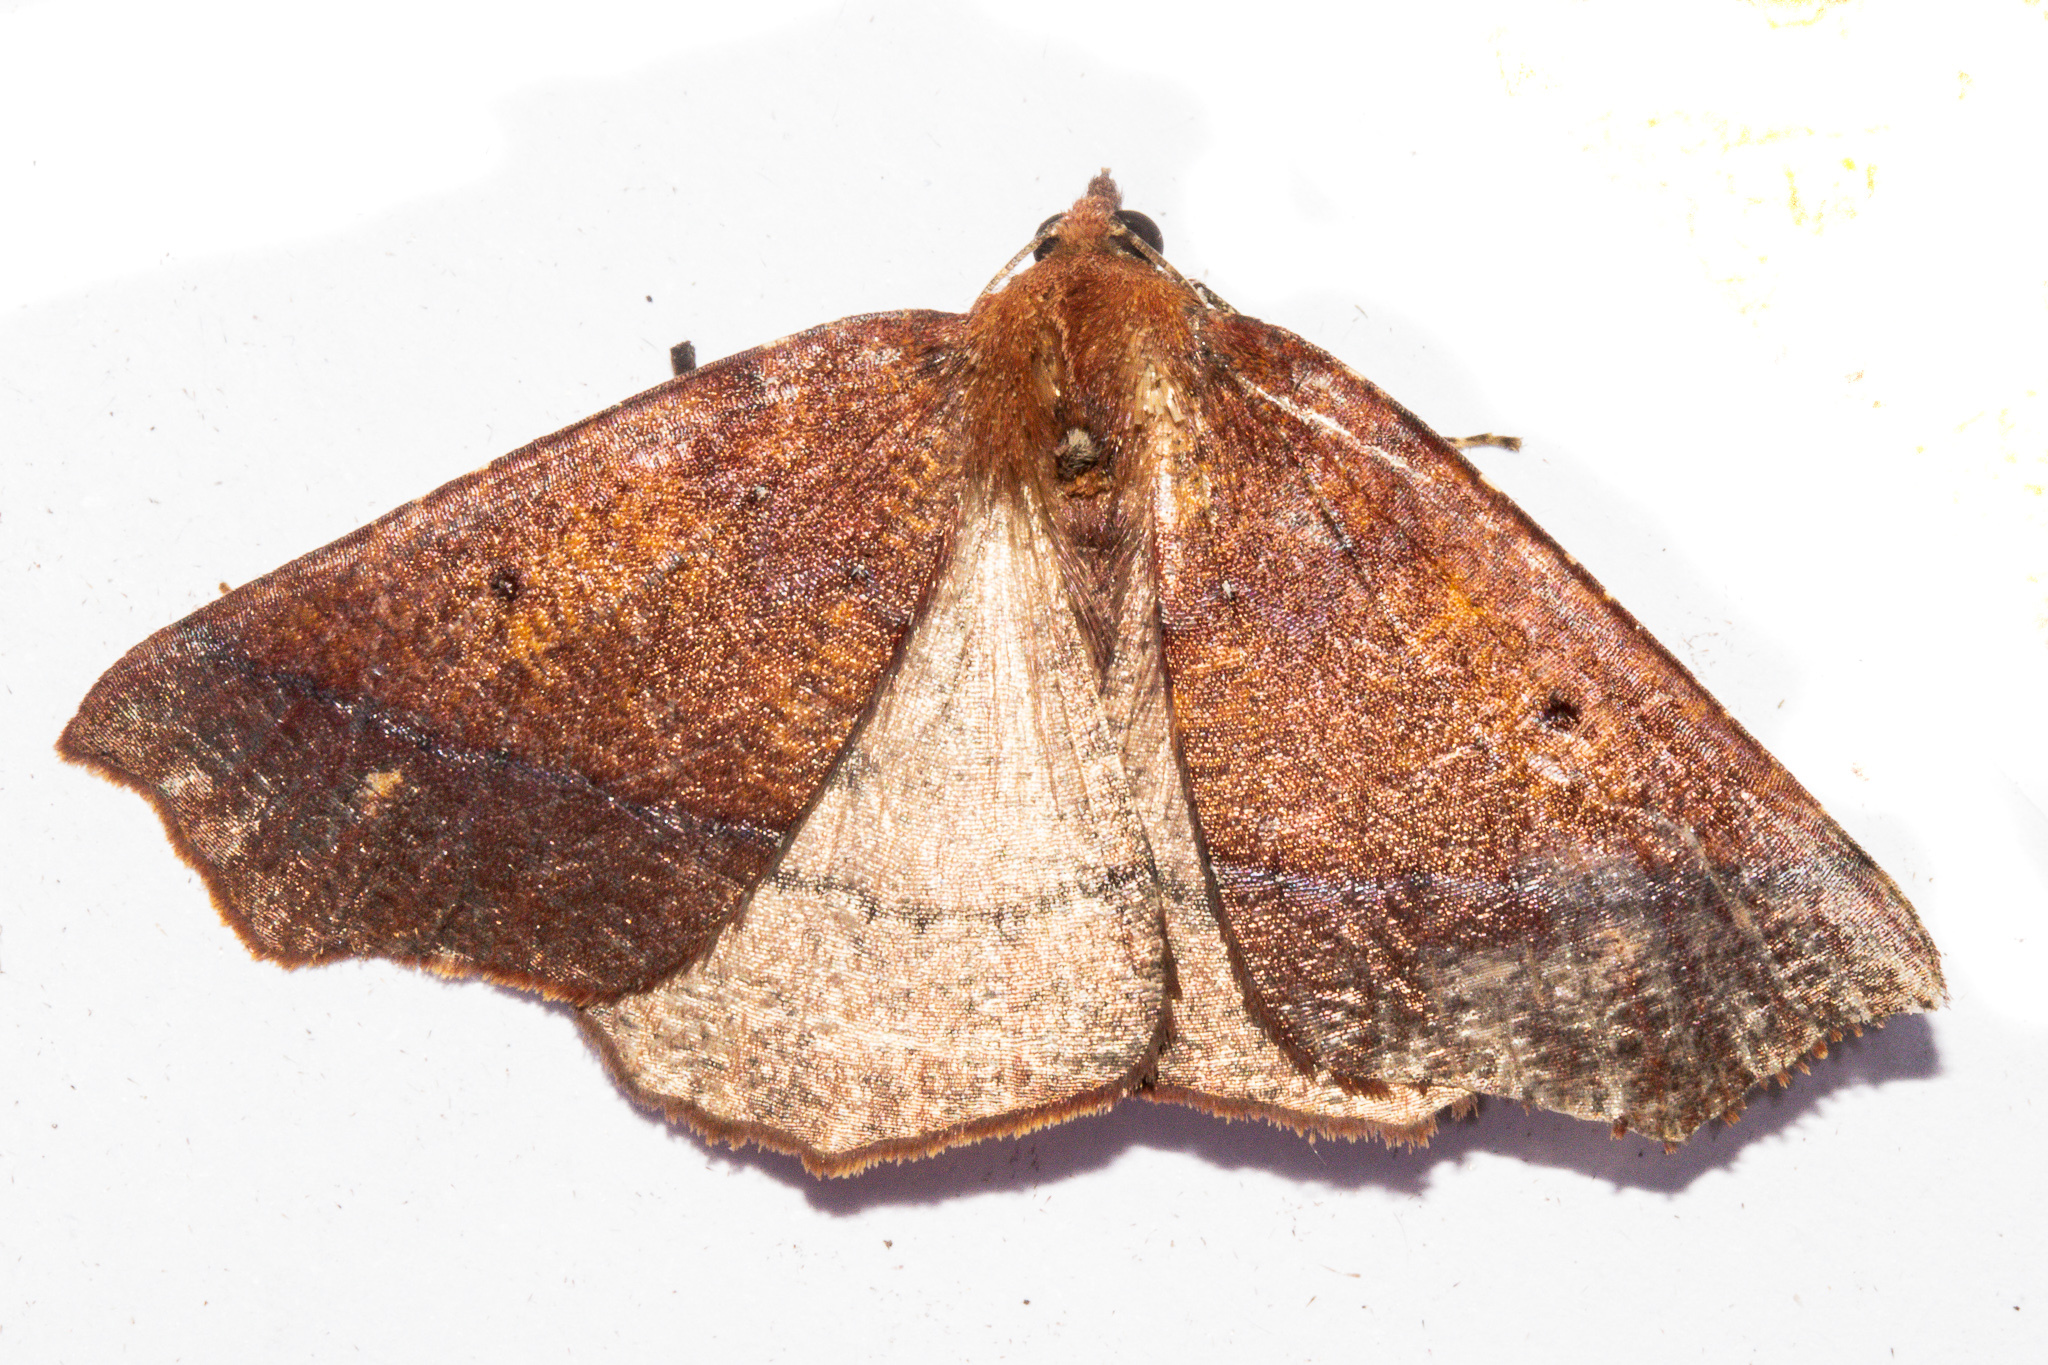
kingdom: Animalia
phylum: Arthropoda
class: Insecta
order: Lepidoptera
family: Geometridae
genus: Ischalis
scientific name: Ischalis nelsonaria
